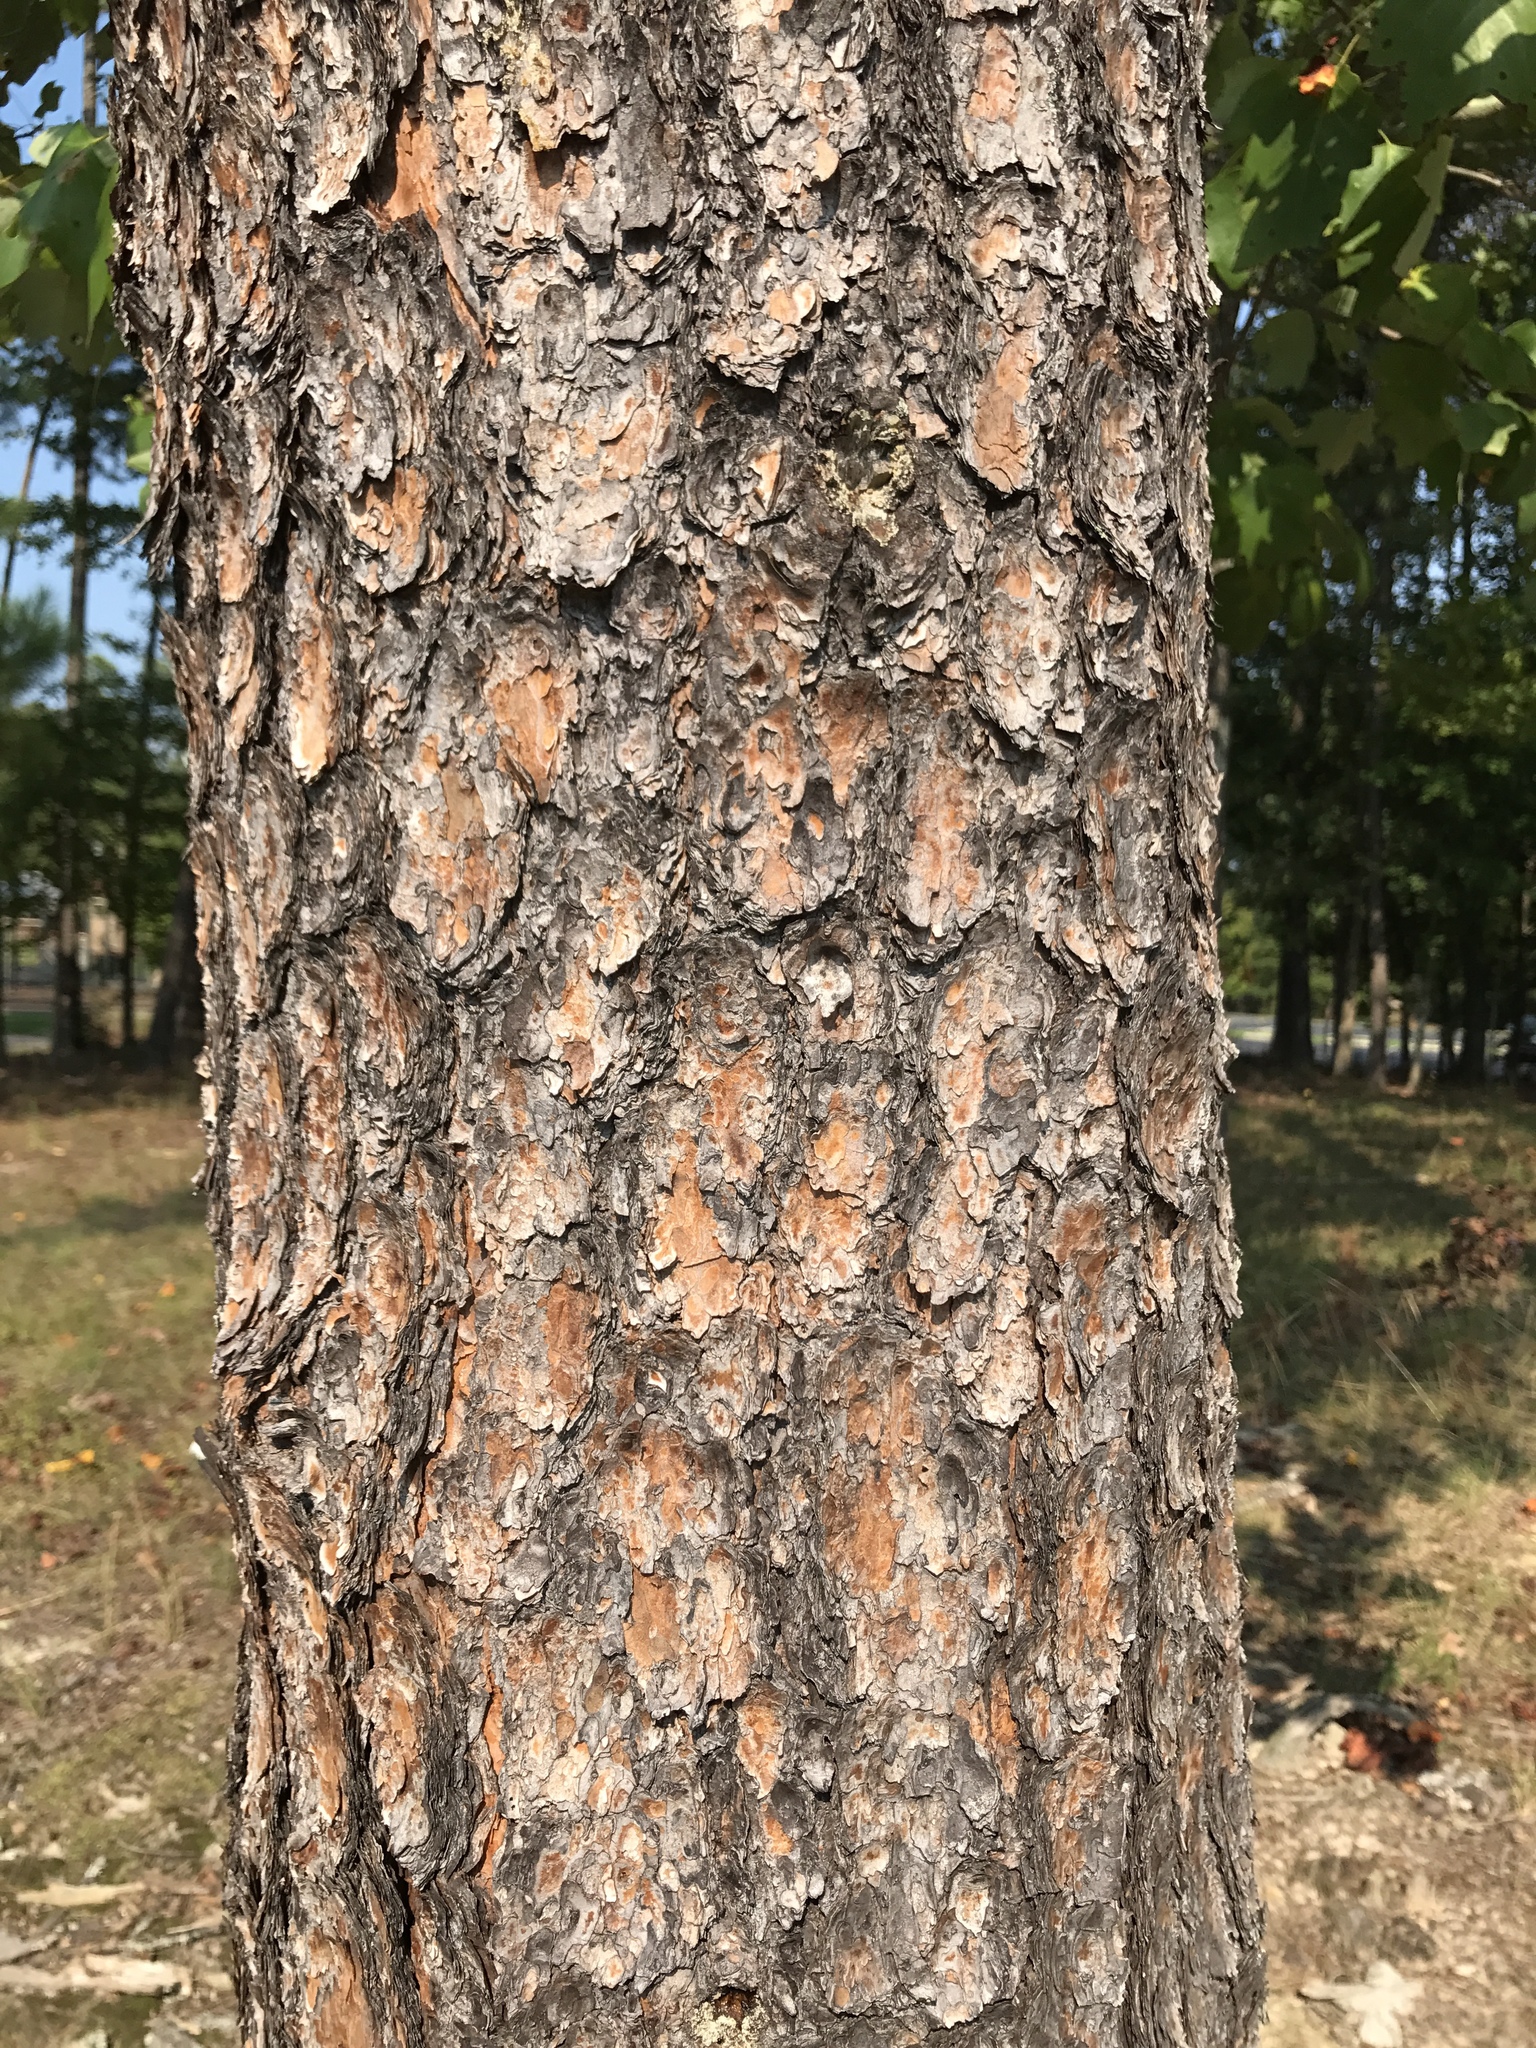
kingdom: Plantae
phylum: Tracheophyta
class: Pinopsida
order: Pinales
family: Pinaceae
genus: Pinus
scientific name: Pinus virginiana
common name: Scrub pine
